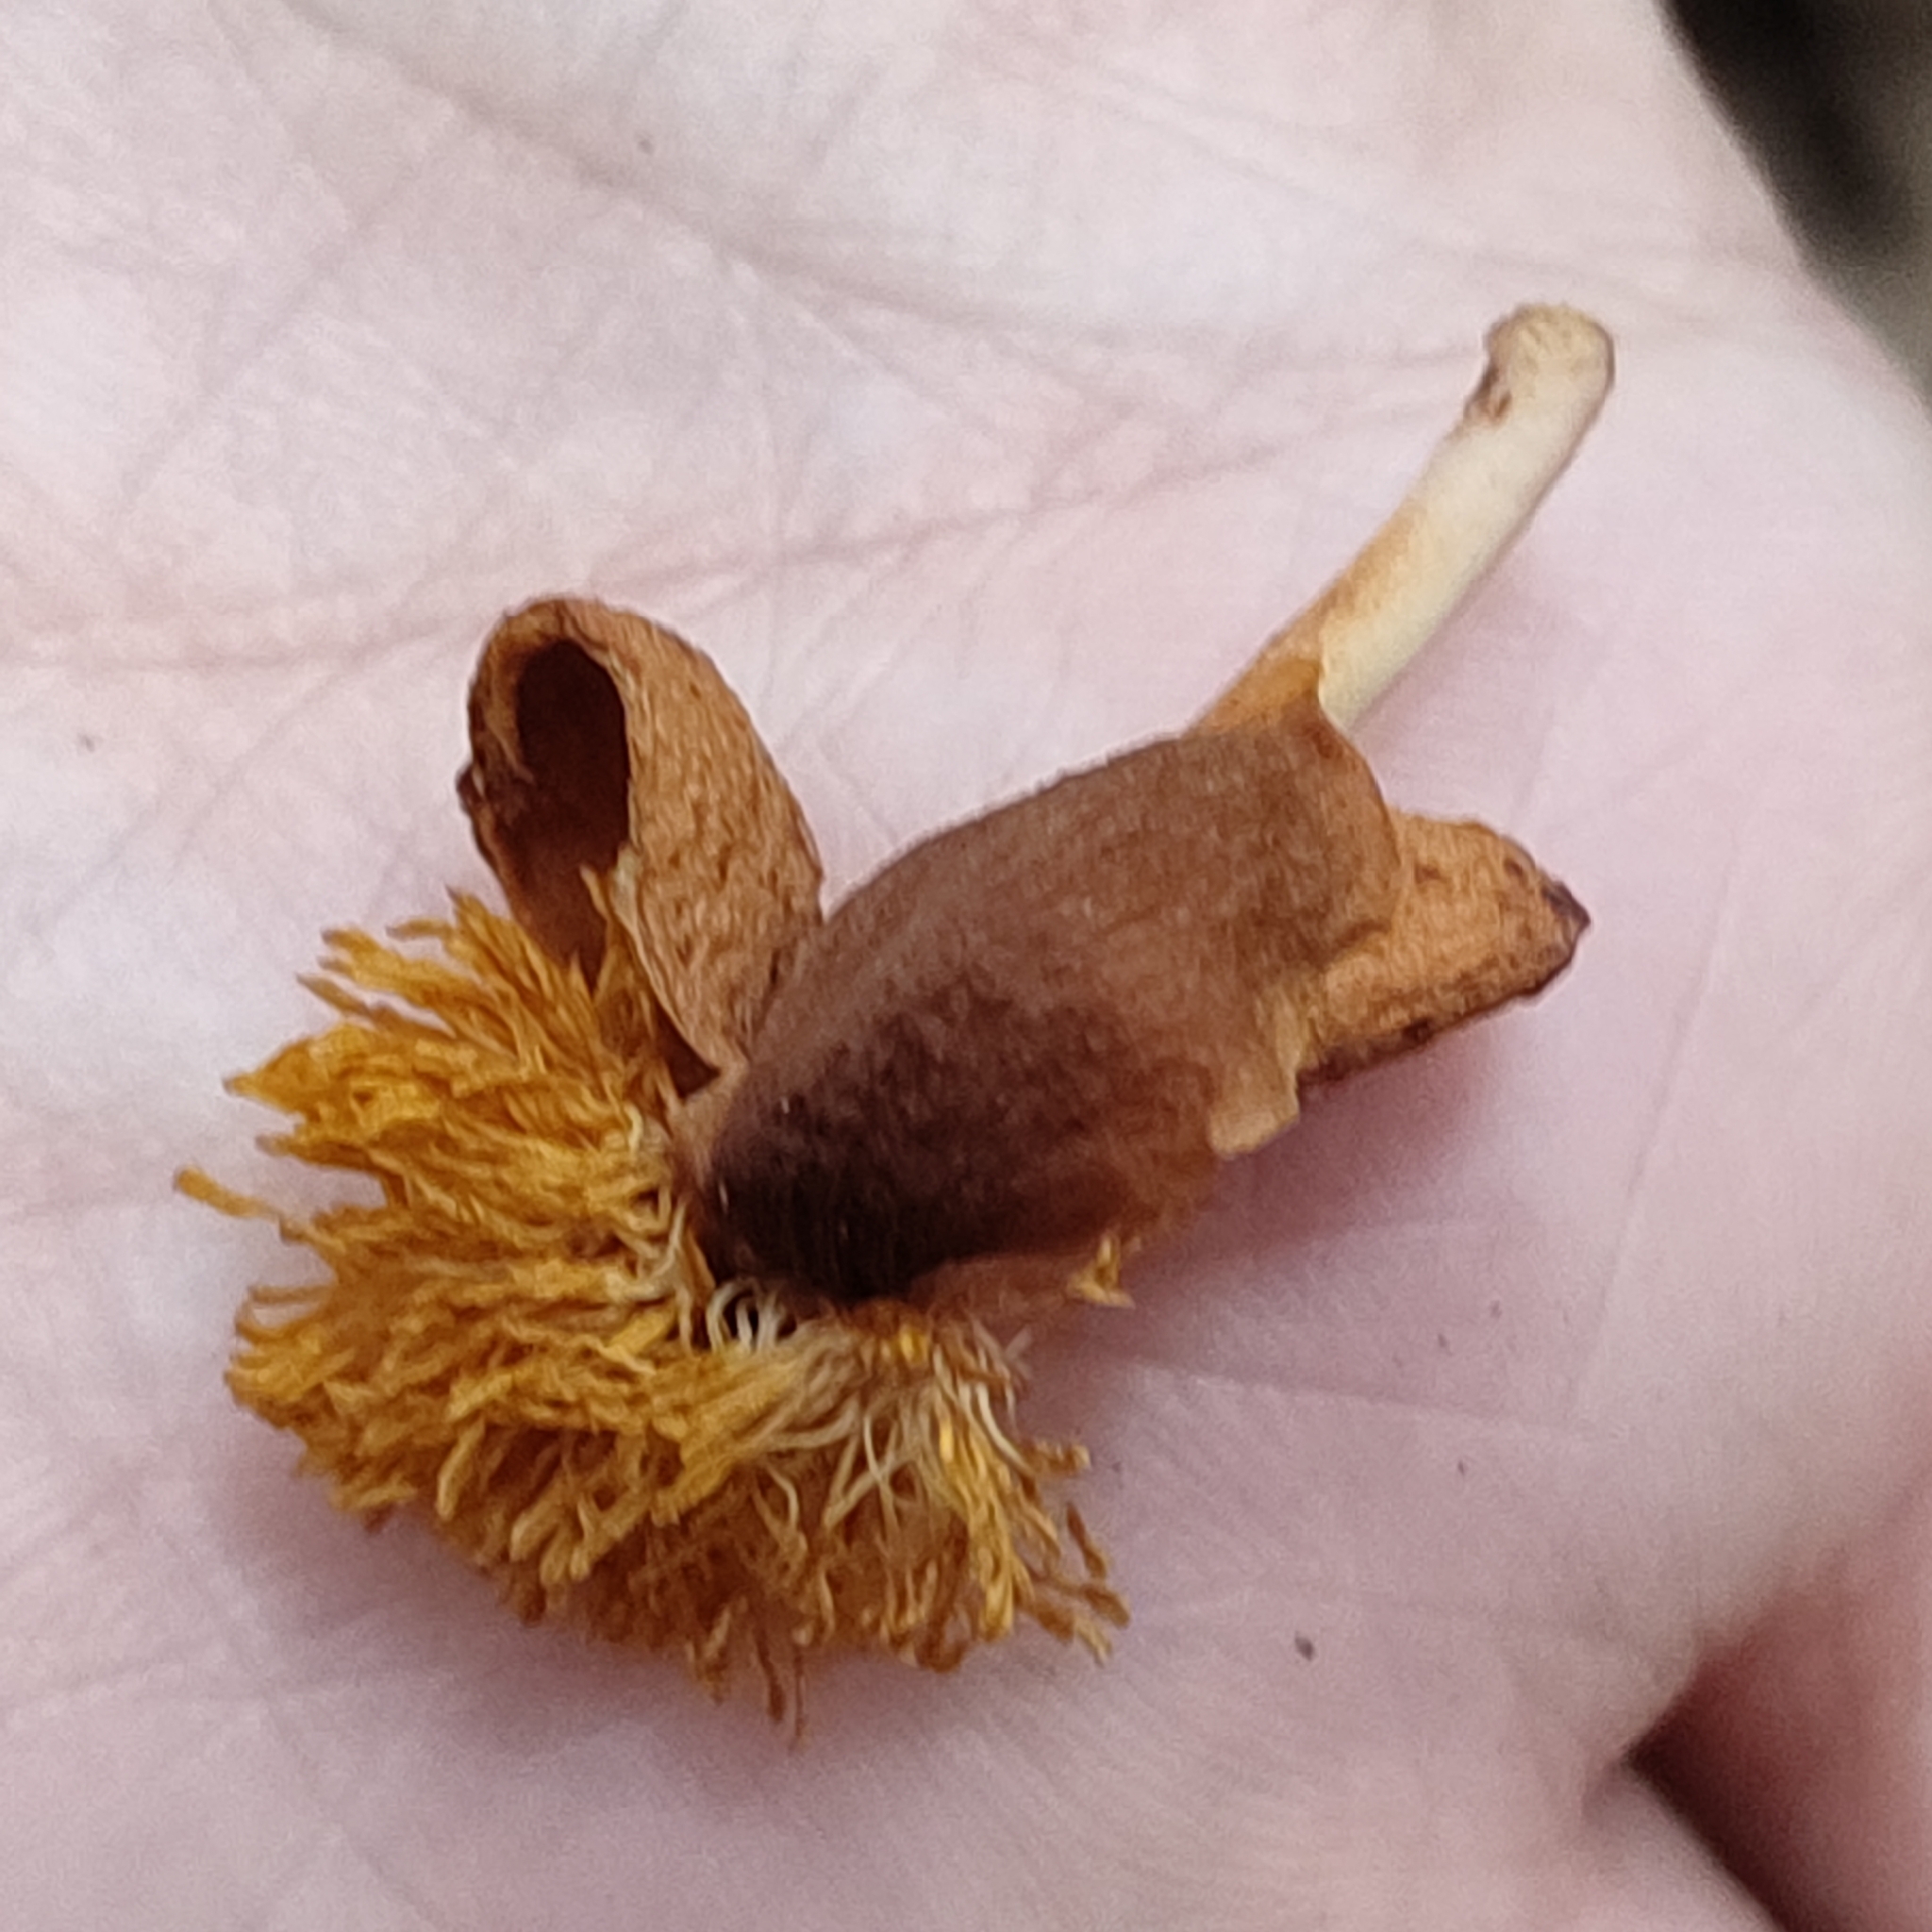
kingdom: Plantae
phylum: Tracheophyta
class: Magnoliopsida
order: Rosales
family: Moraceae
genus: Castilla
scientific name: Castilla elastica
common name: Castilla rubber
